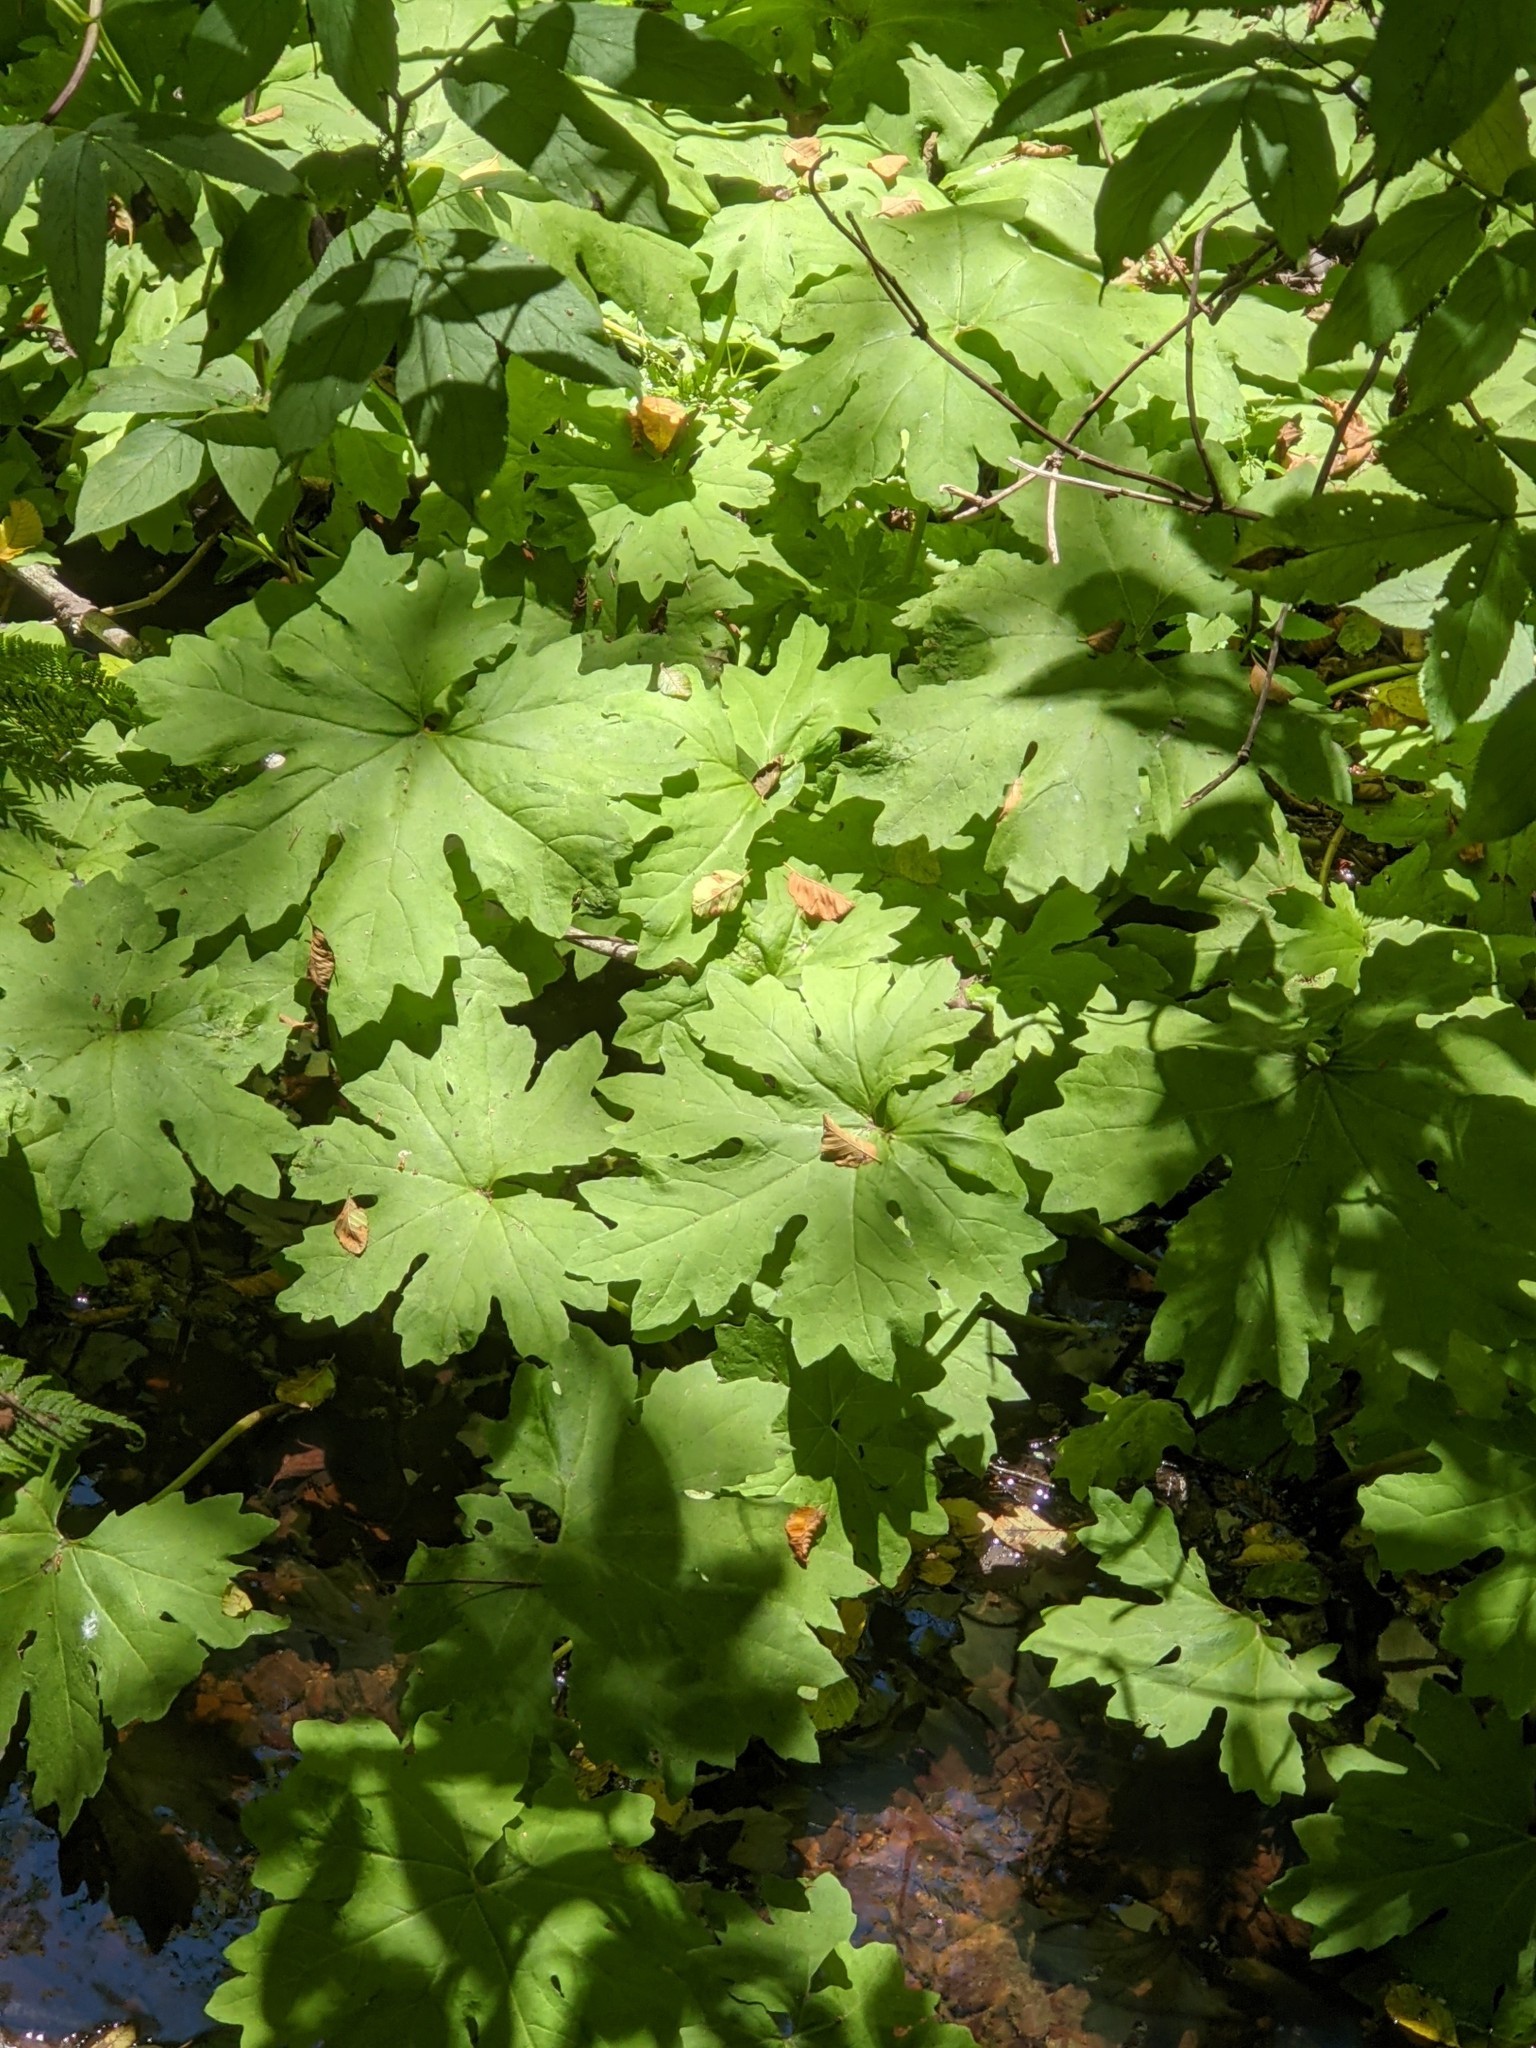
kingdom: Plantae
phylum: Tracheophyta
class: Magnoliopsida
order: Asterales
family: Asteraceae
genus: Petasites
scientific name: Petasites frigidus
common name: Arctic butterbur
